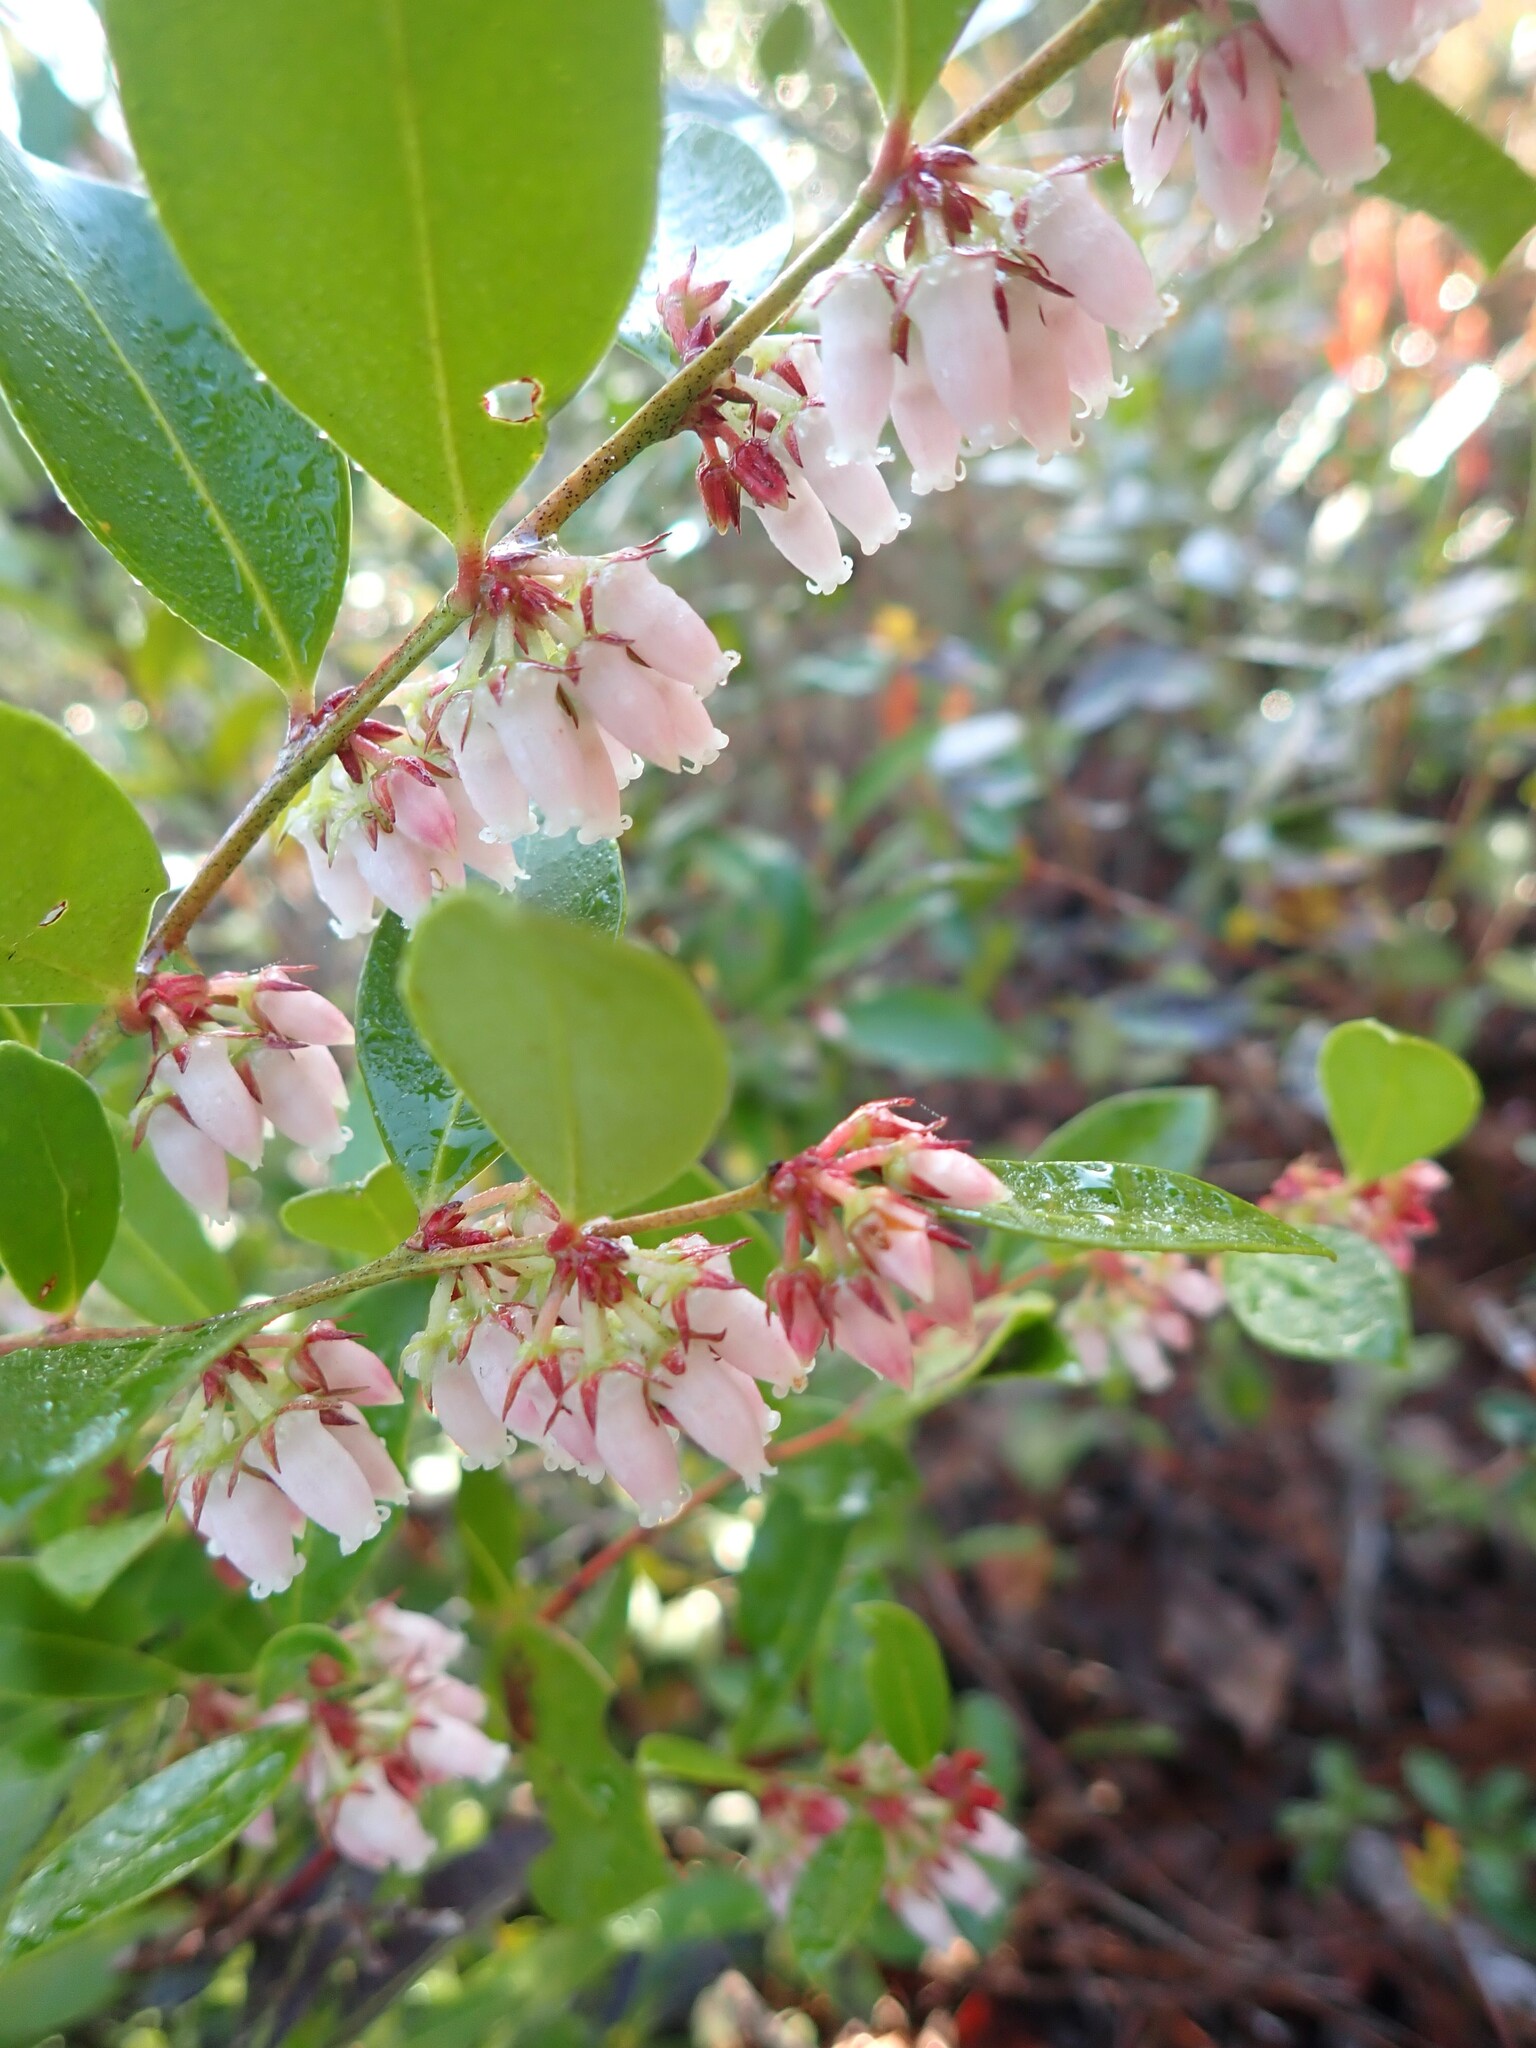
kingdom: Plantae
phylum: Tracheophyta
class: Magnoliopsida
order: Ericales
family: Ericaceae
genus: Lyonia
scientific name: Lyonia lucida
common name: Fetterbush
